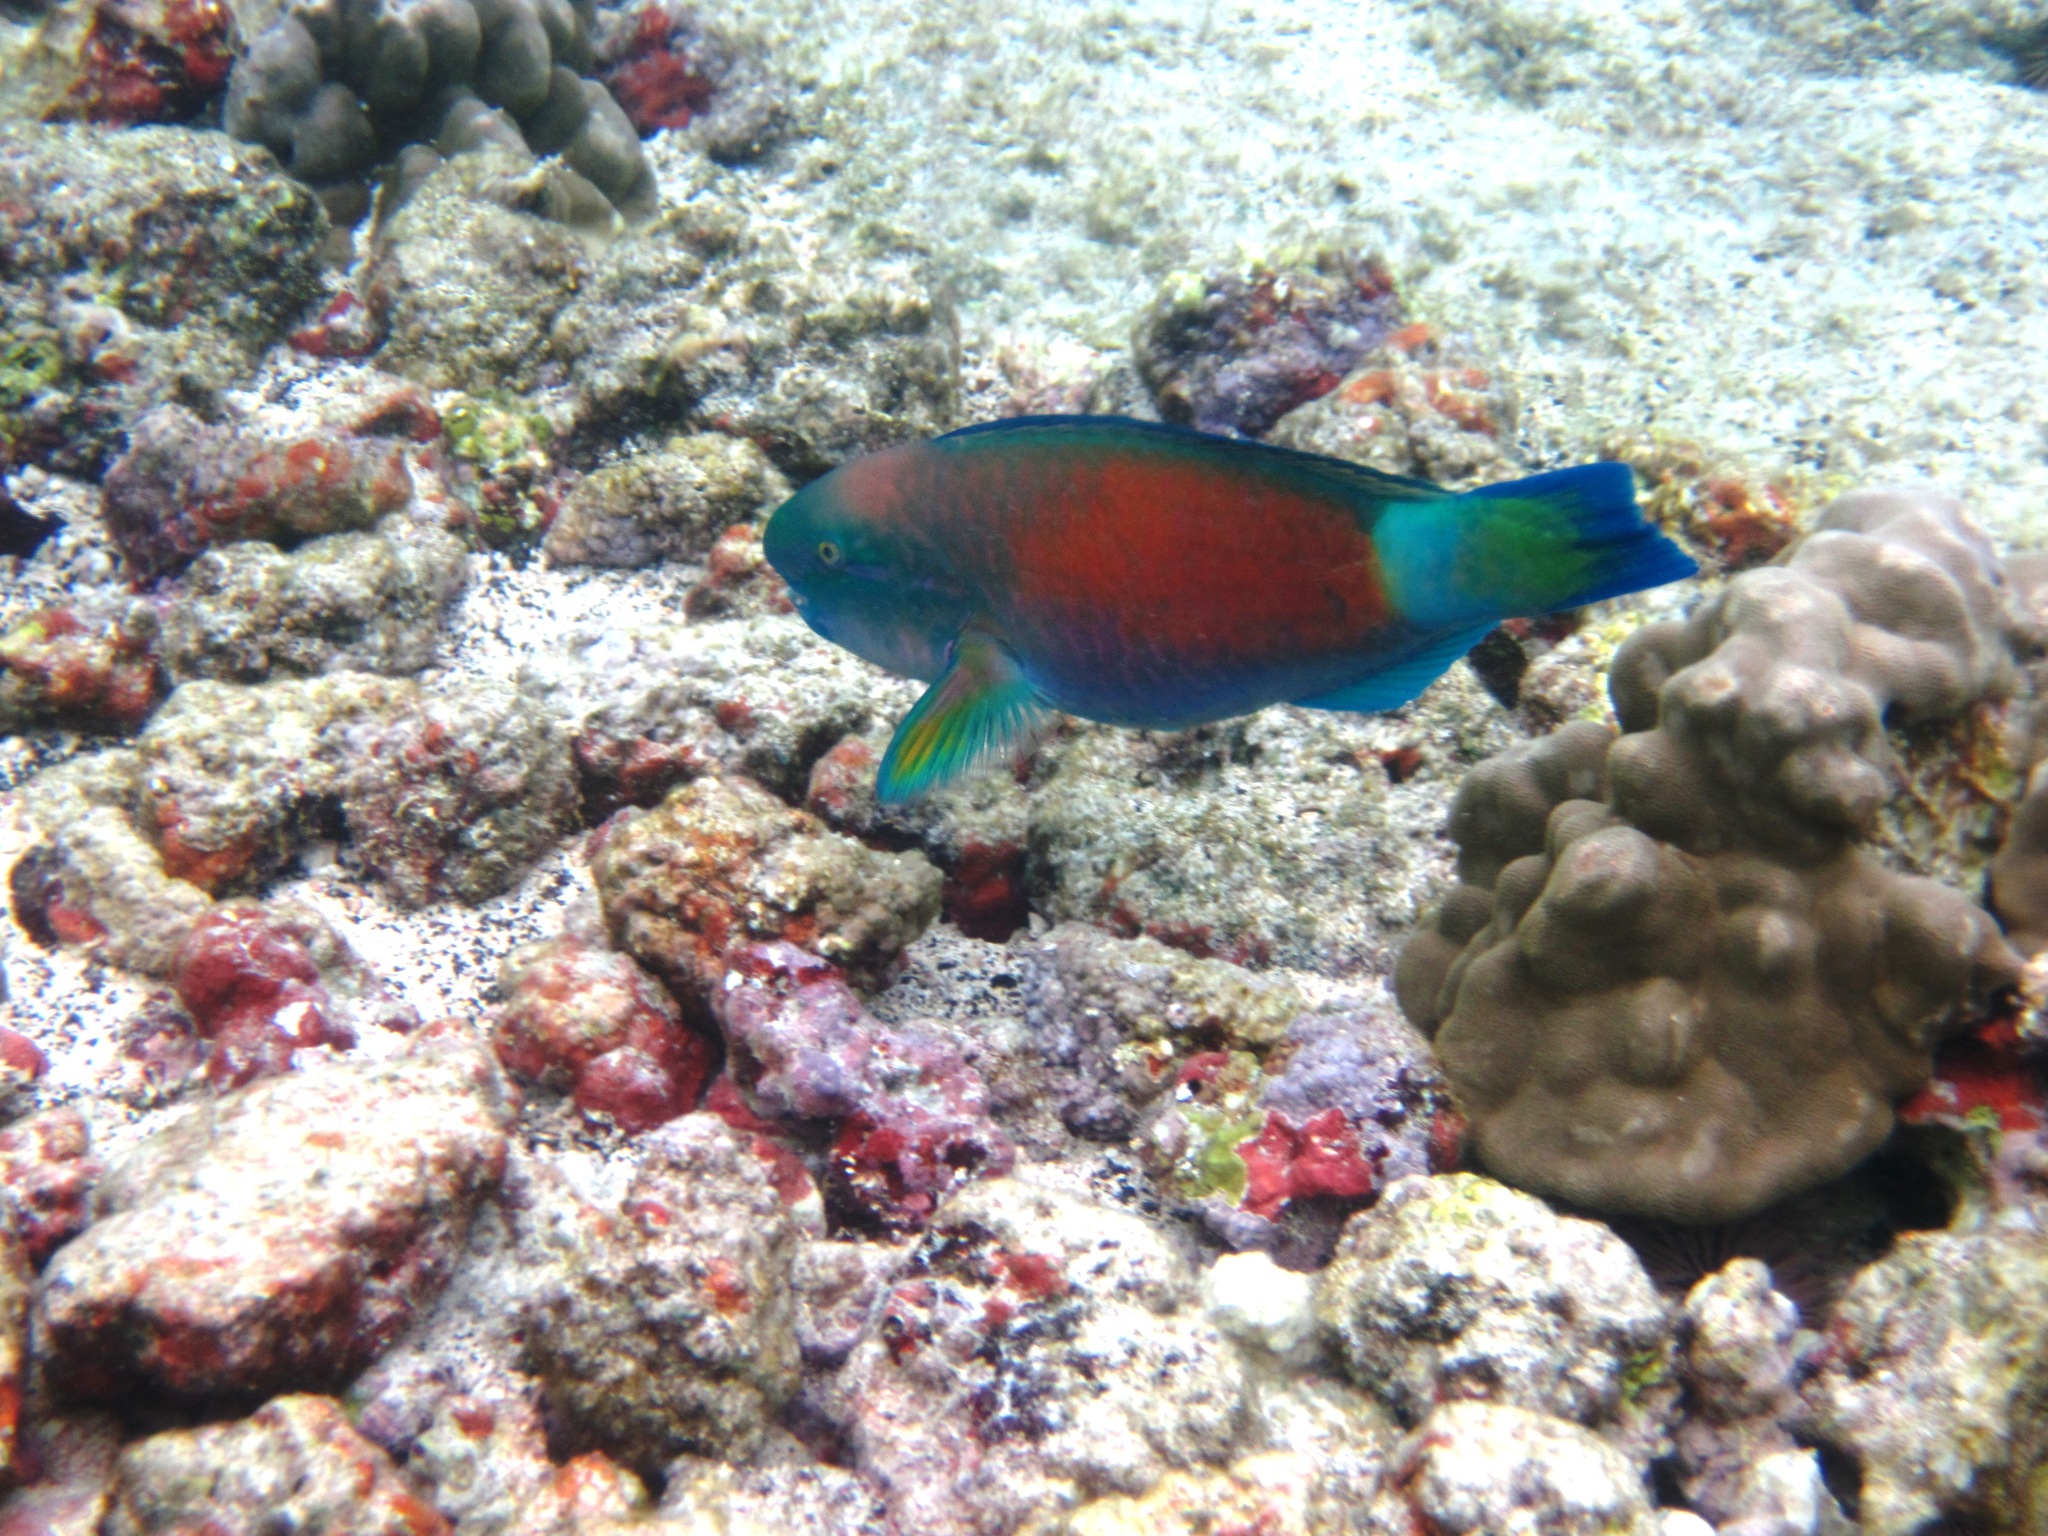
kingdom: Animalia
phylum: Chordata
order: Perciformes
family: Scaridae
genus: Chlorurus
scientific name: Chlorurus spilurus
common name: Bullethead parrotfish
